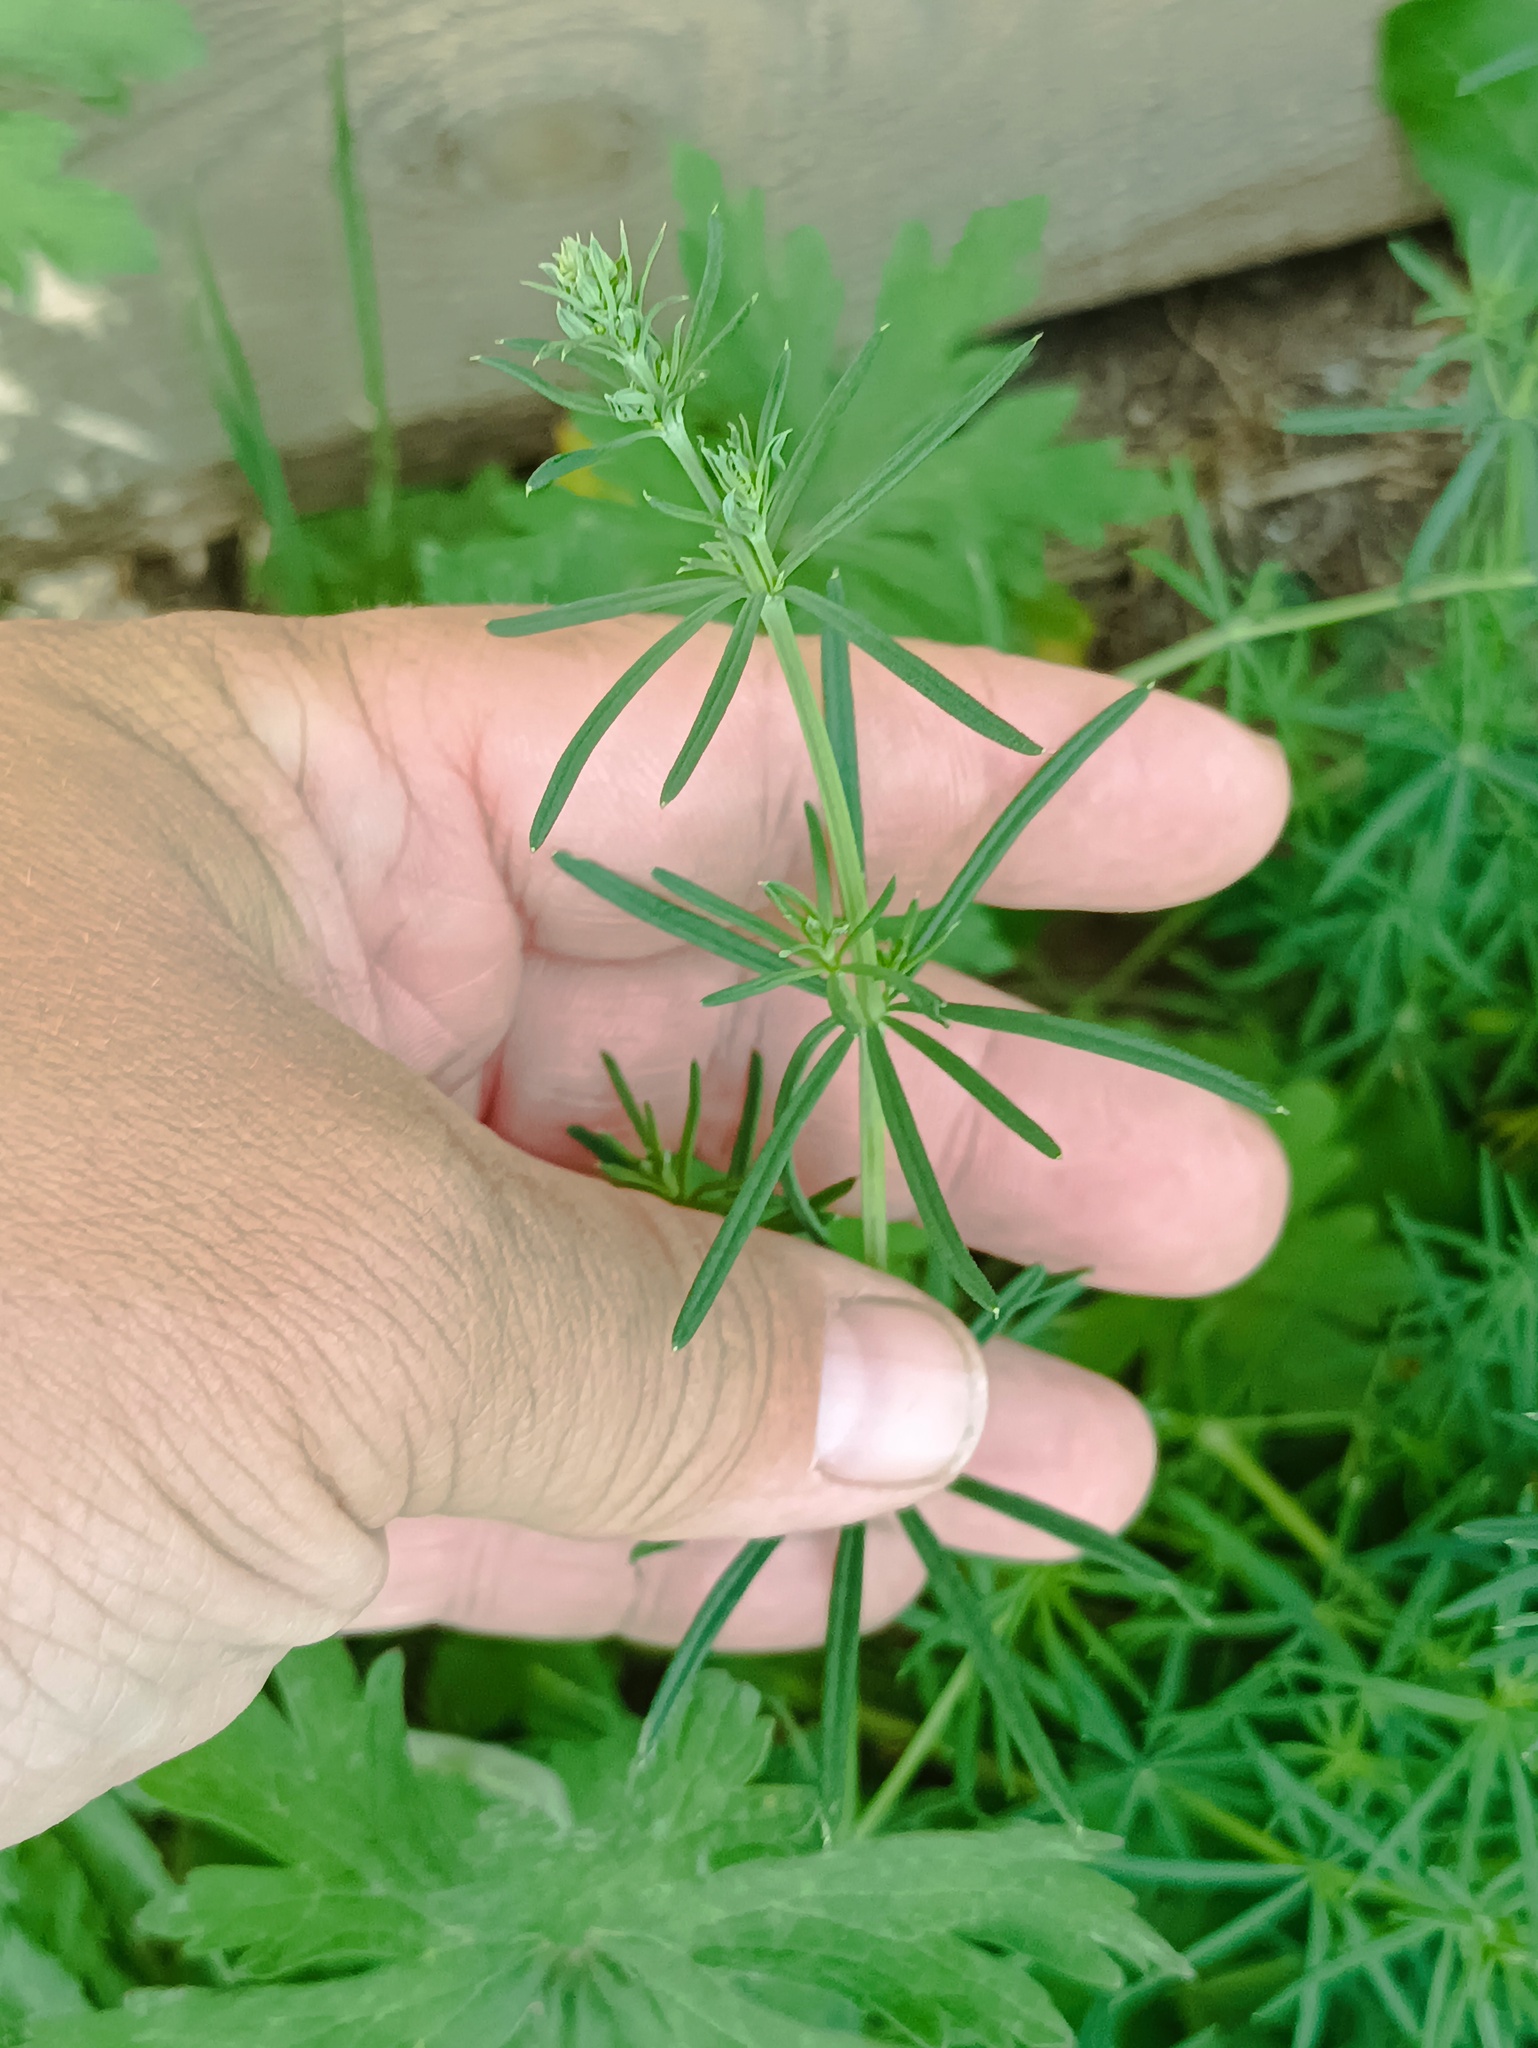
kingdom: Plantae
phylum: Tracheophyta
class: Magnoliopsida
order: Gentianales
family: Rubiaceae
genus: Galium
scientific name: Galium verum
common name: Lady's bedstraw
